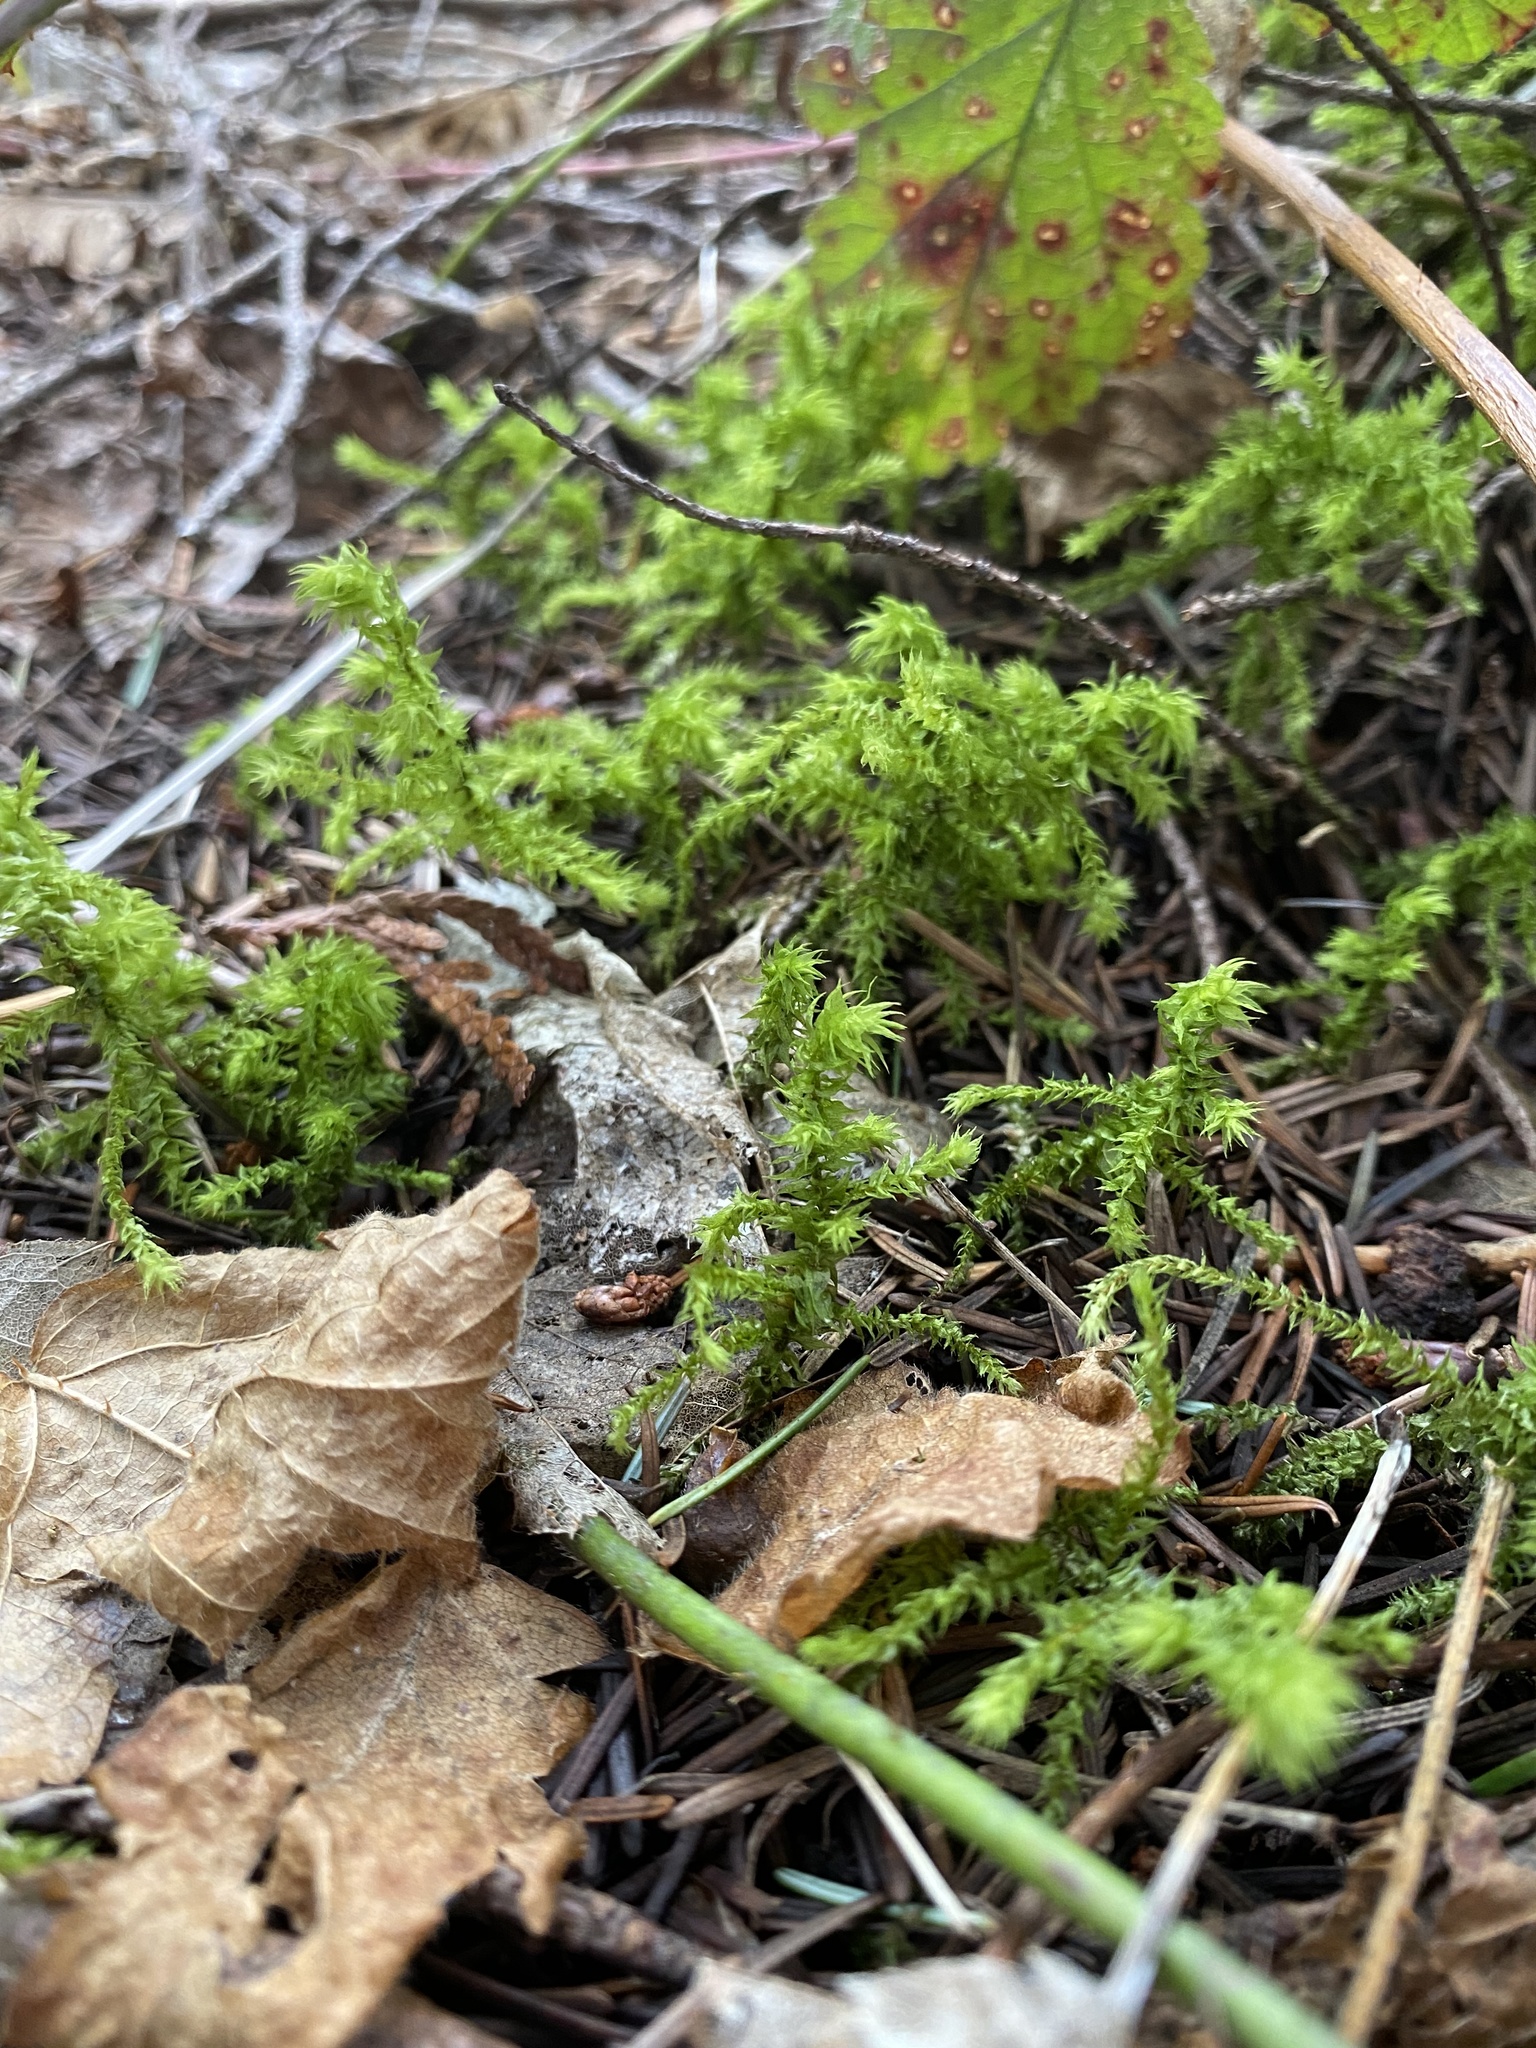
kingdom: Plantae
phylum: Bryophyta
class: Bryopsida
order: Hypnales
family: Hylocomiaceae
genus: Hylocomiadelphus
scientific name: Hylocomiadelphus triquetrus
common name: Rough goose neck moss
